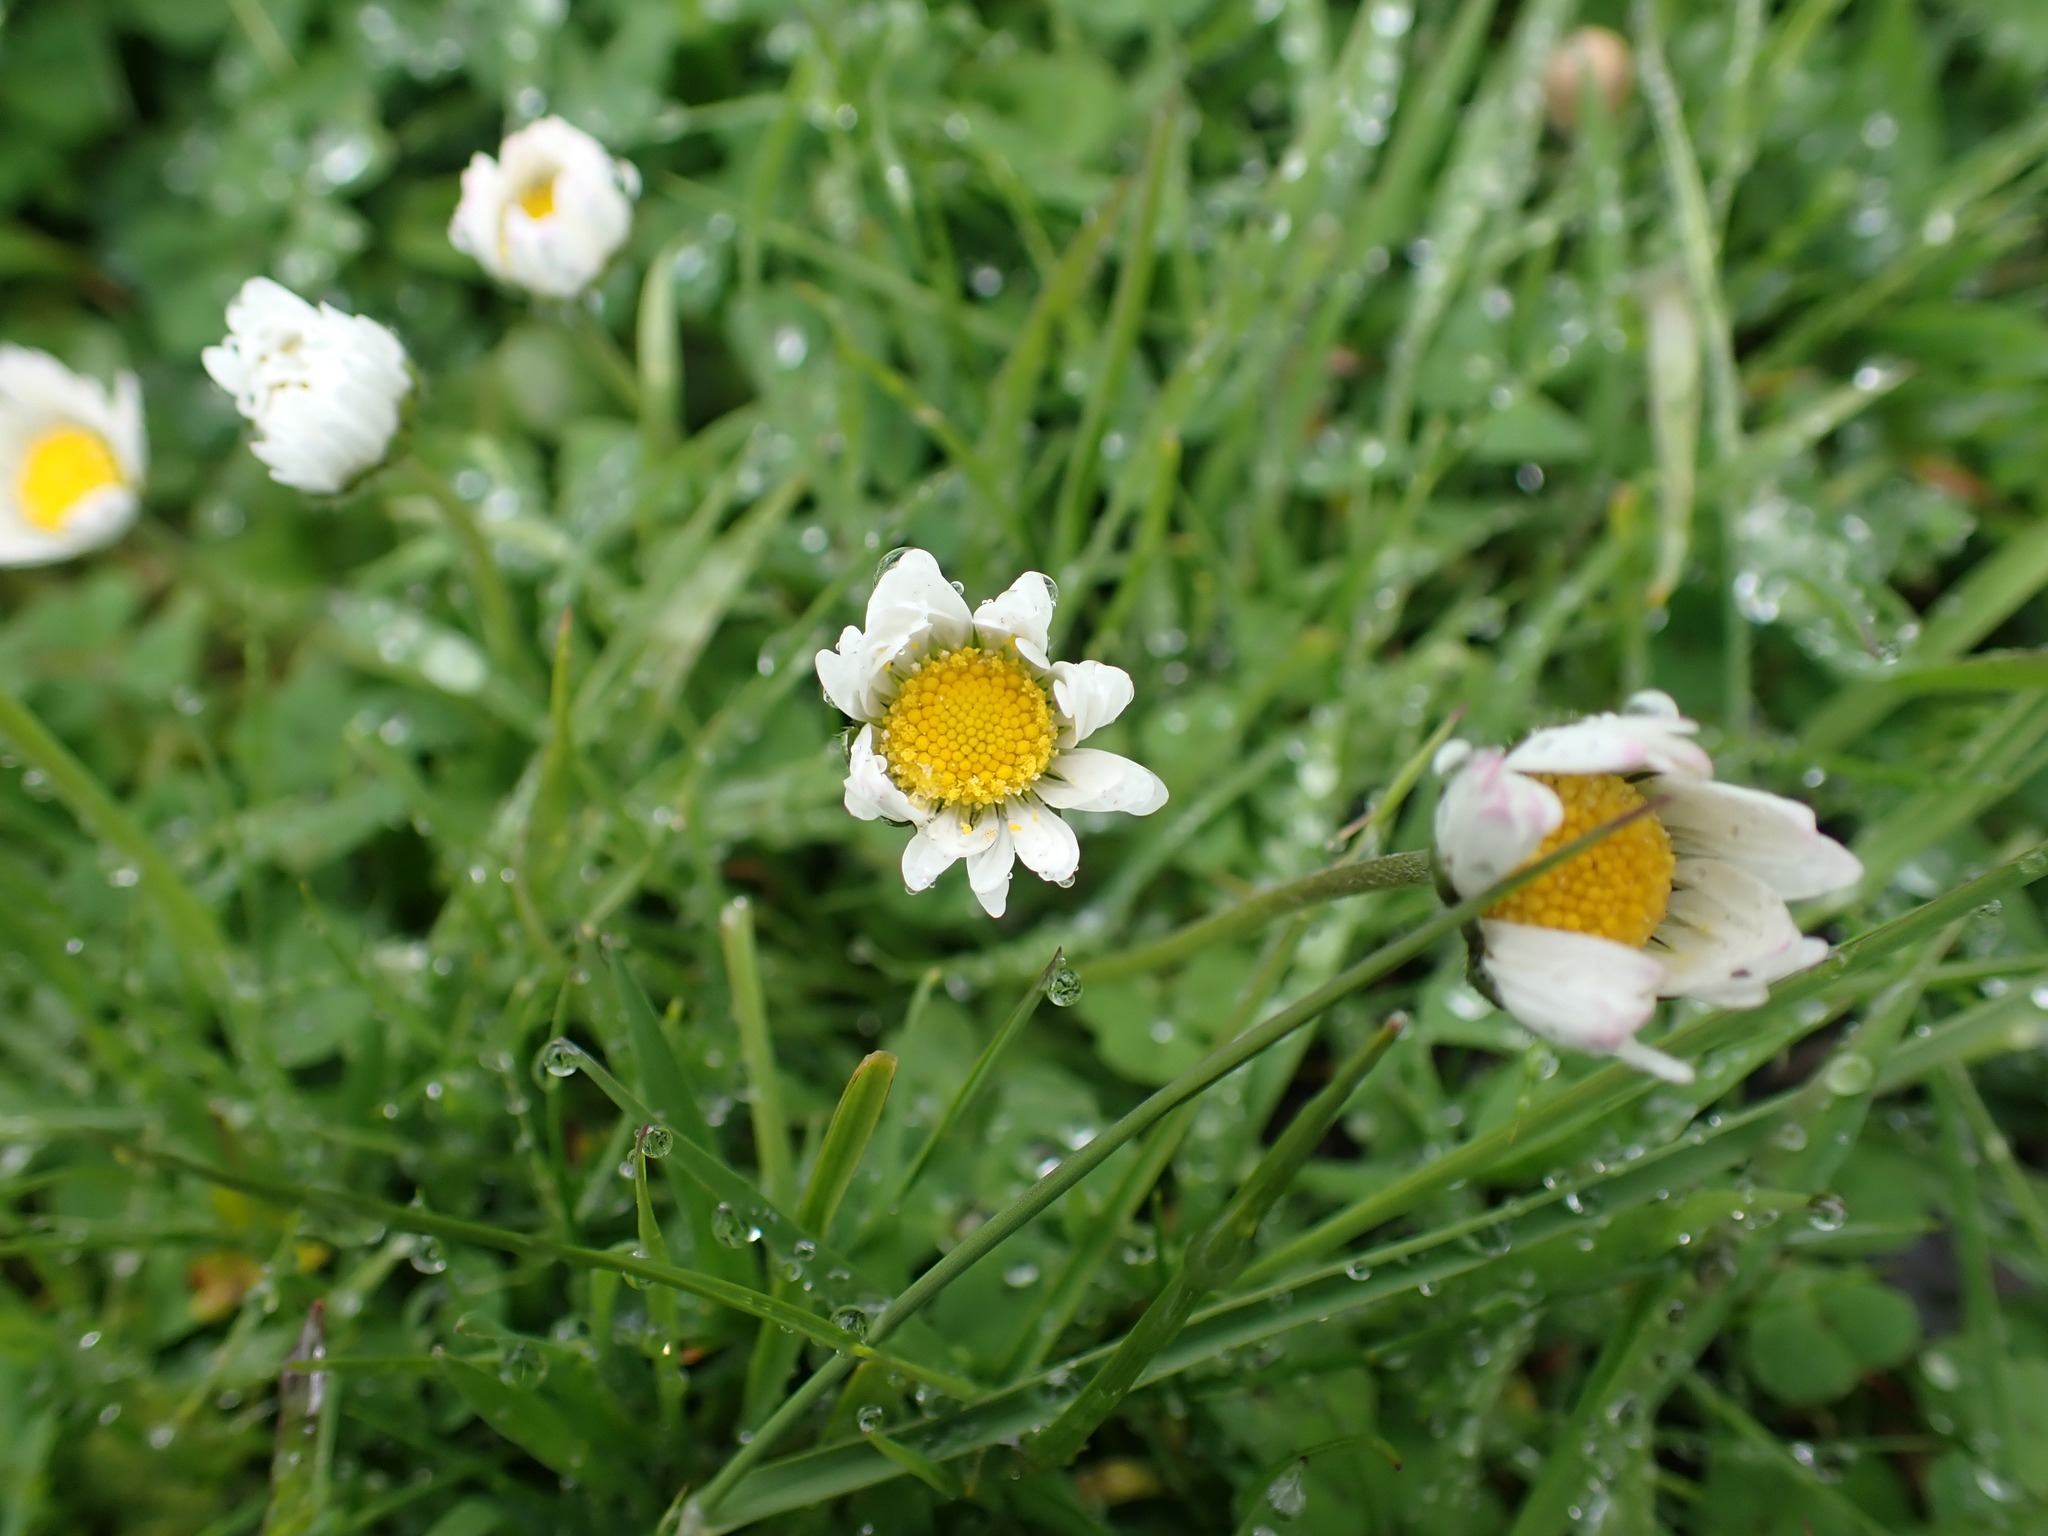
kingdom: Plantae
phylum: Tracheophyta
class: Magnoliopsida
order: Asterales
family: Asteraceae
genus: Bellis
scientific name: Bellis perennis
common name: Lawndaisy
